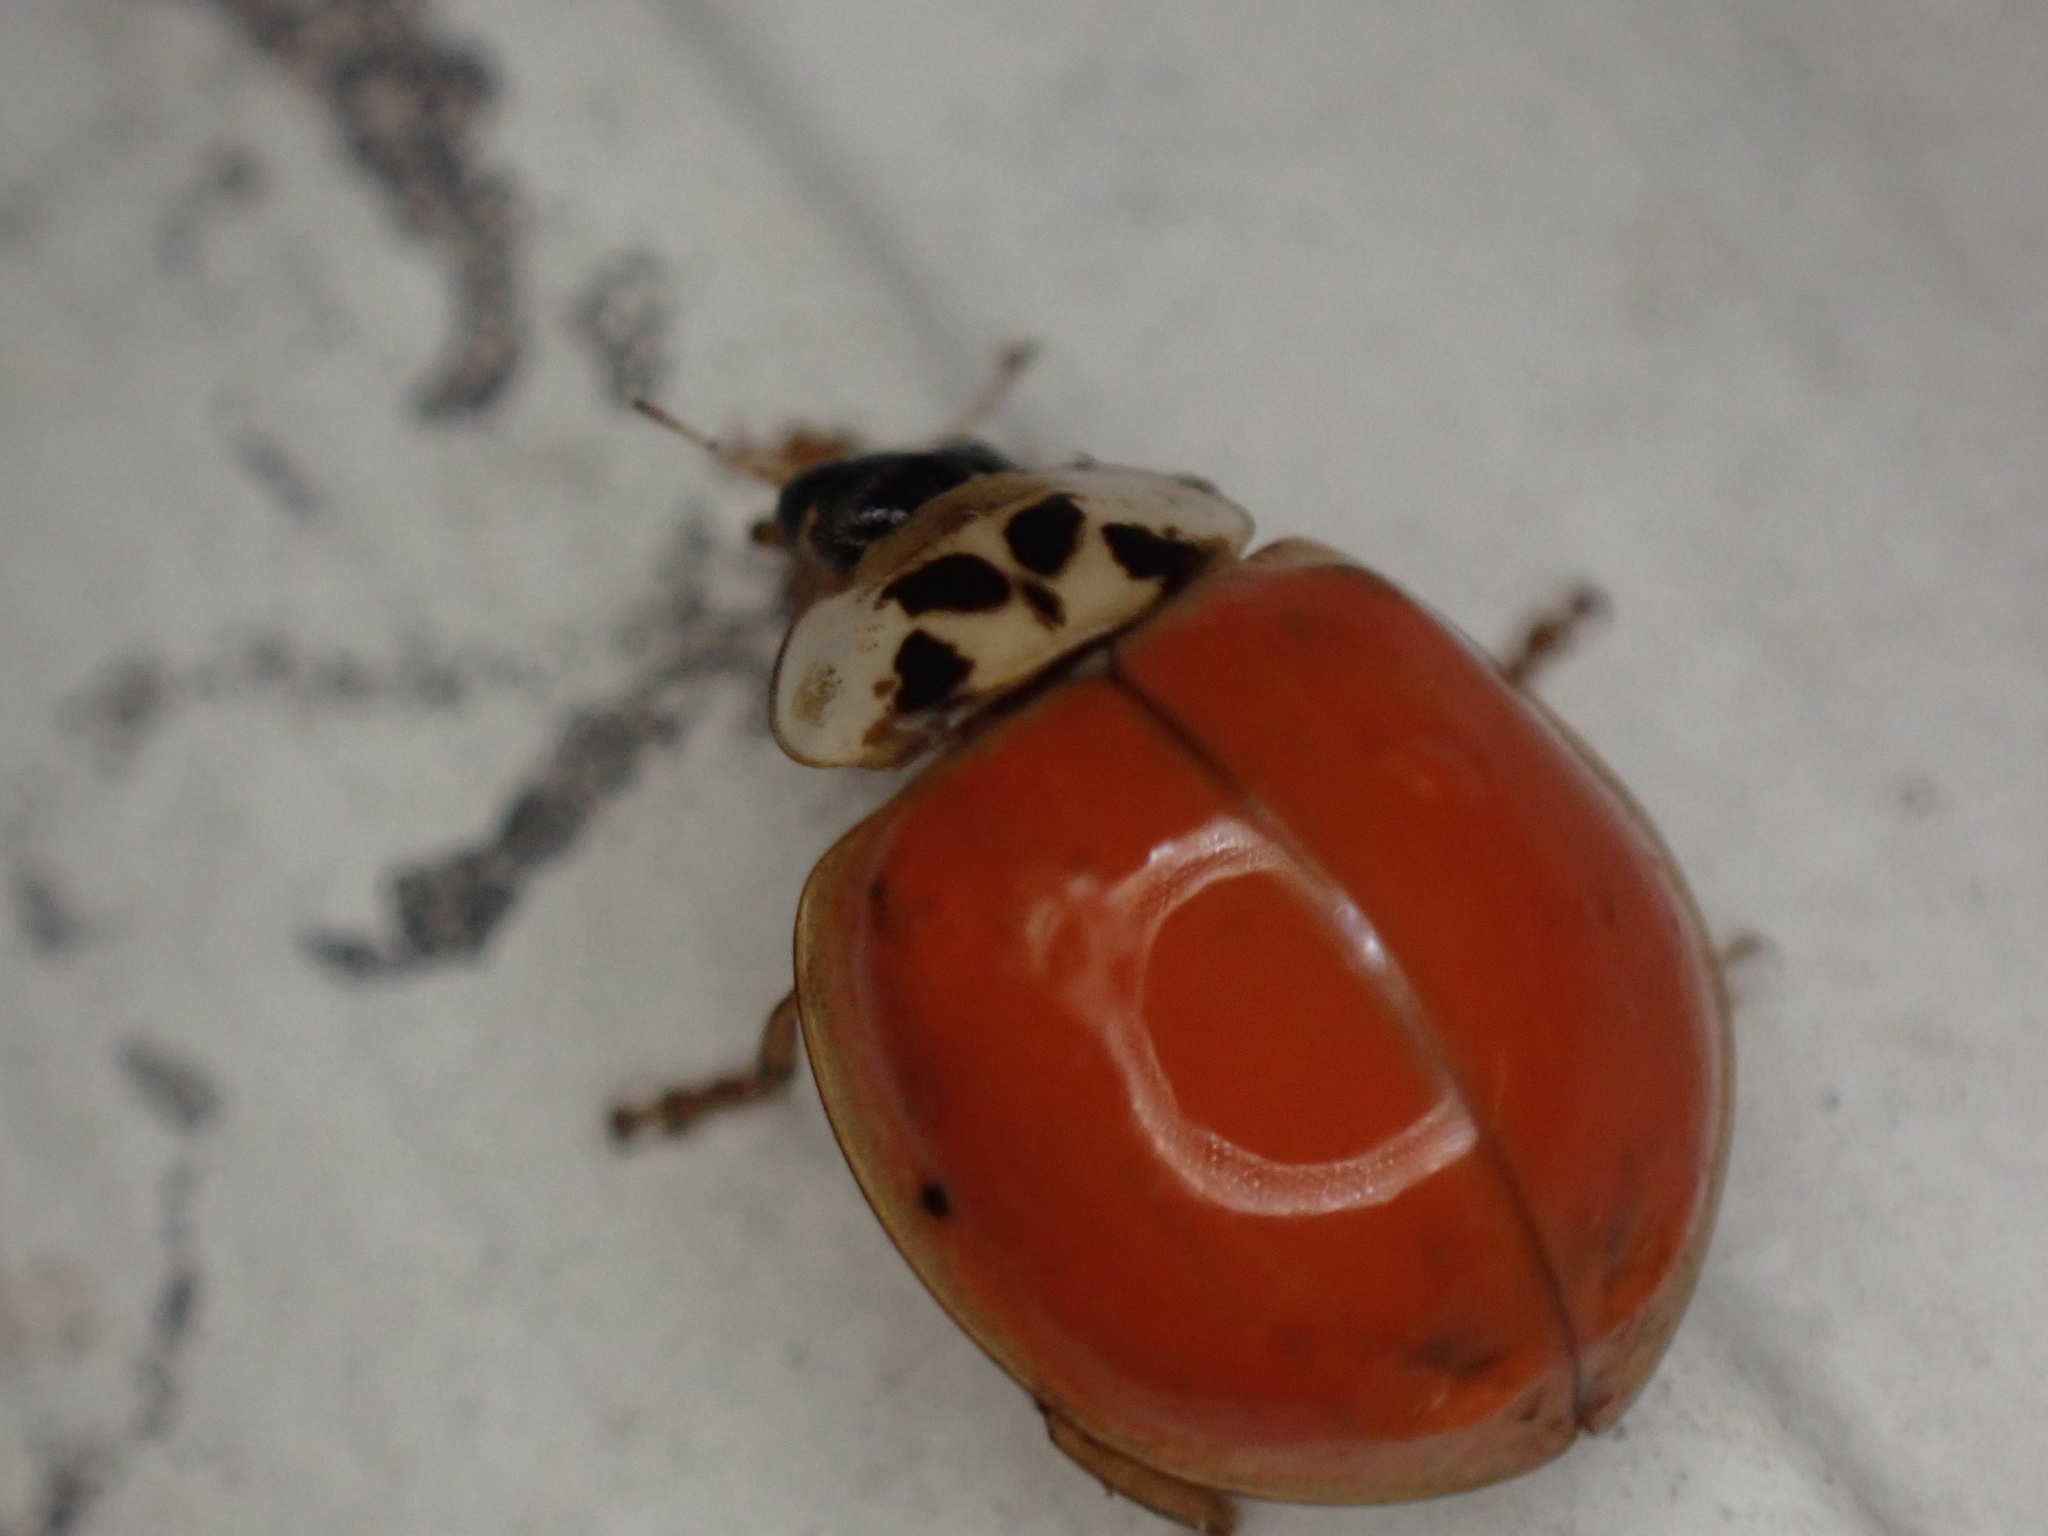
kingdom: Animalia
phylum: Arthropoda
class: Insecta
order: Coleoptera
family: Coccinellidae
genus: Harmonia
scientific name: Harmonia axyridis
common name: Harlequin ladybird
